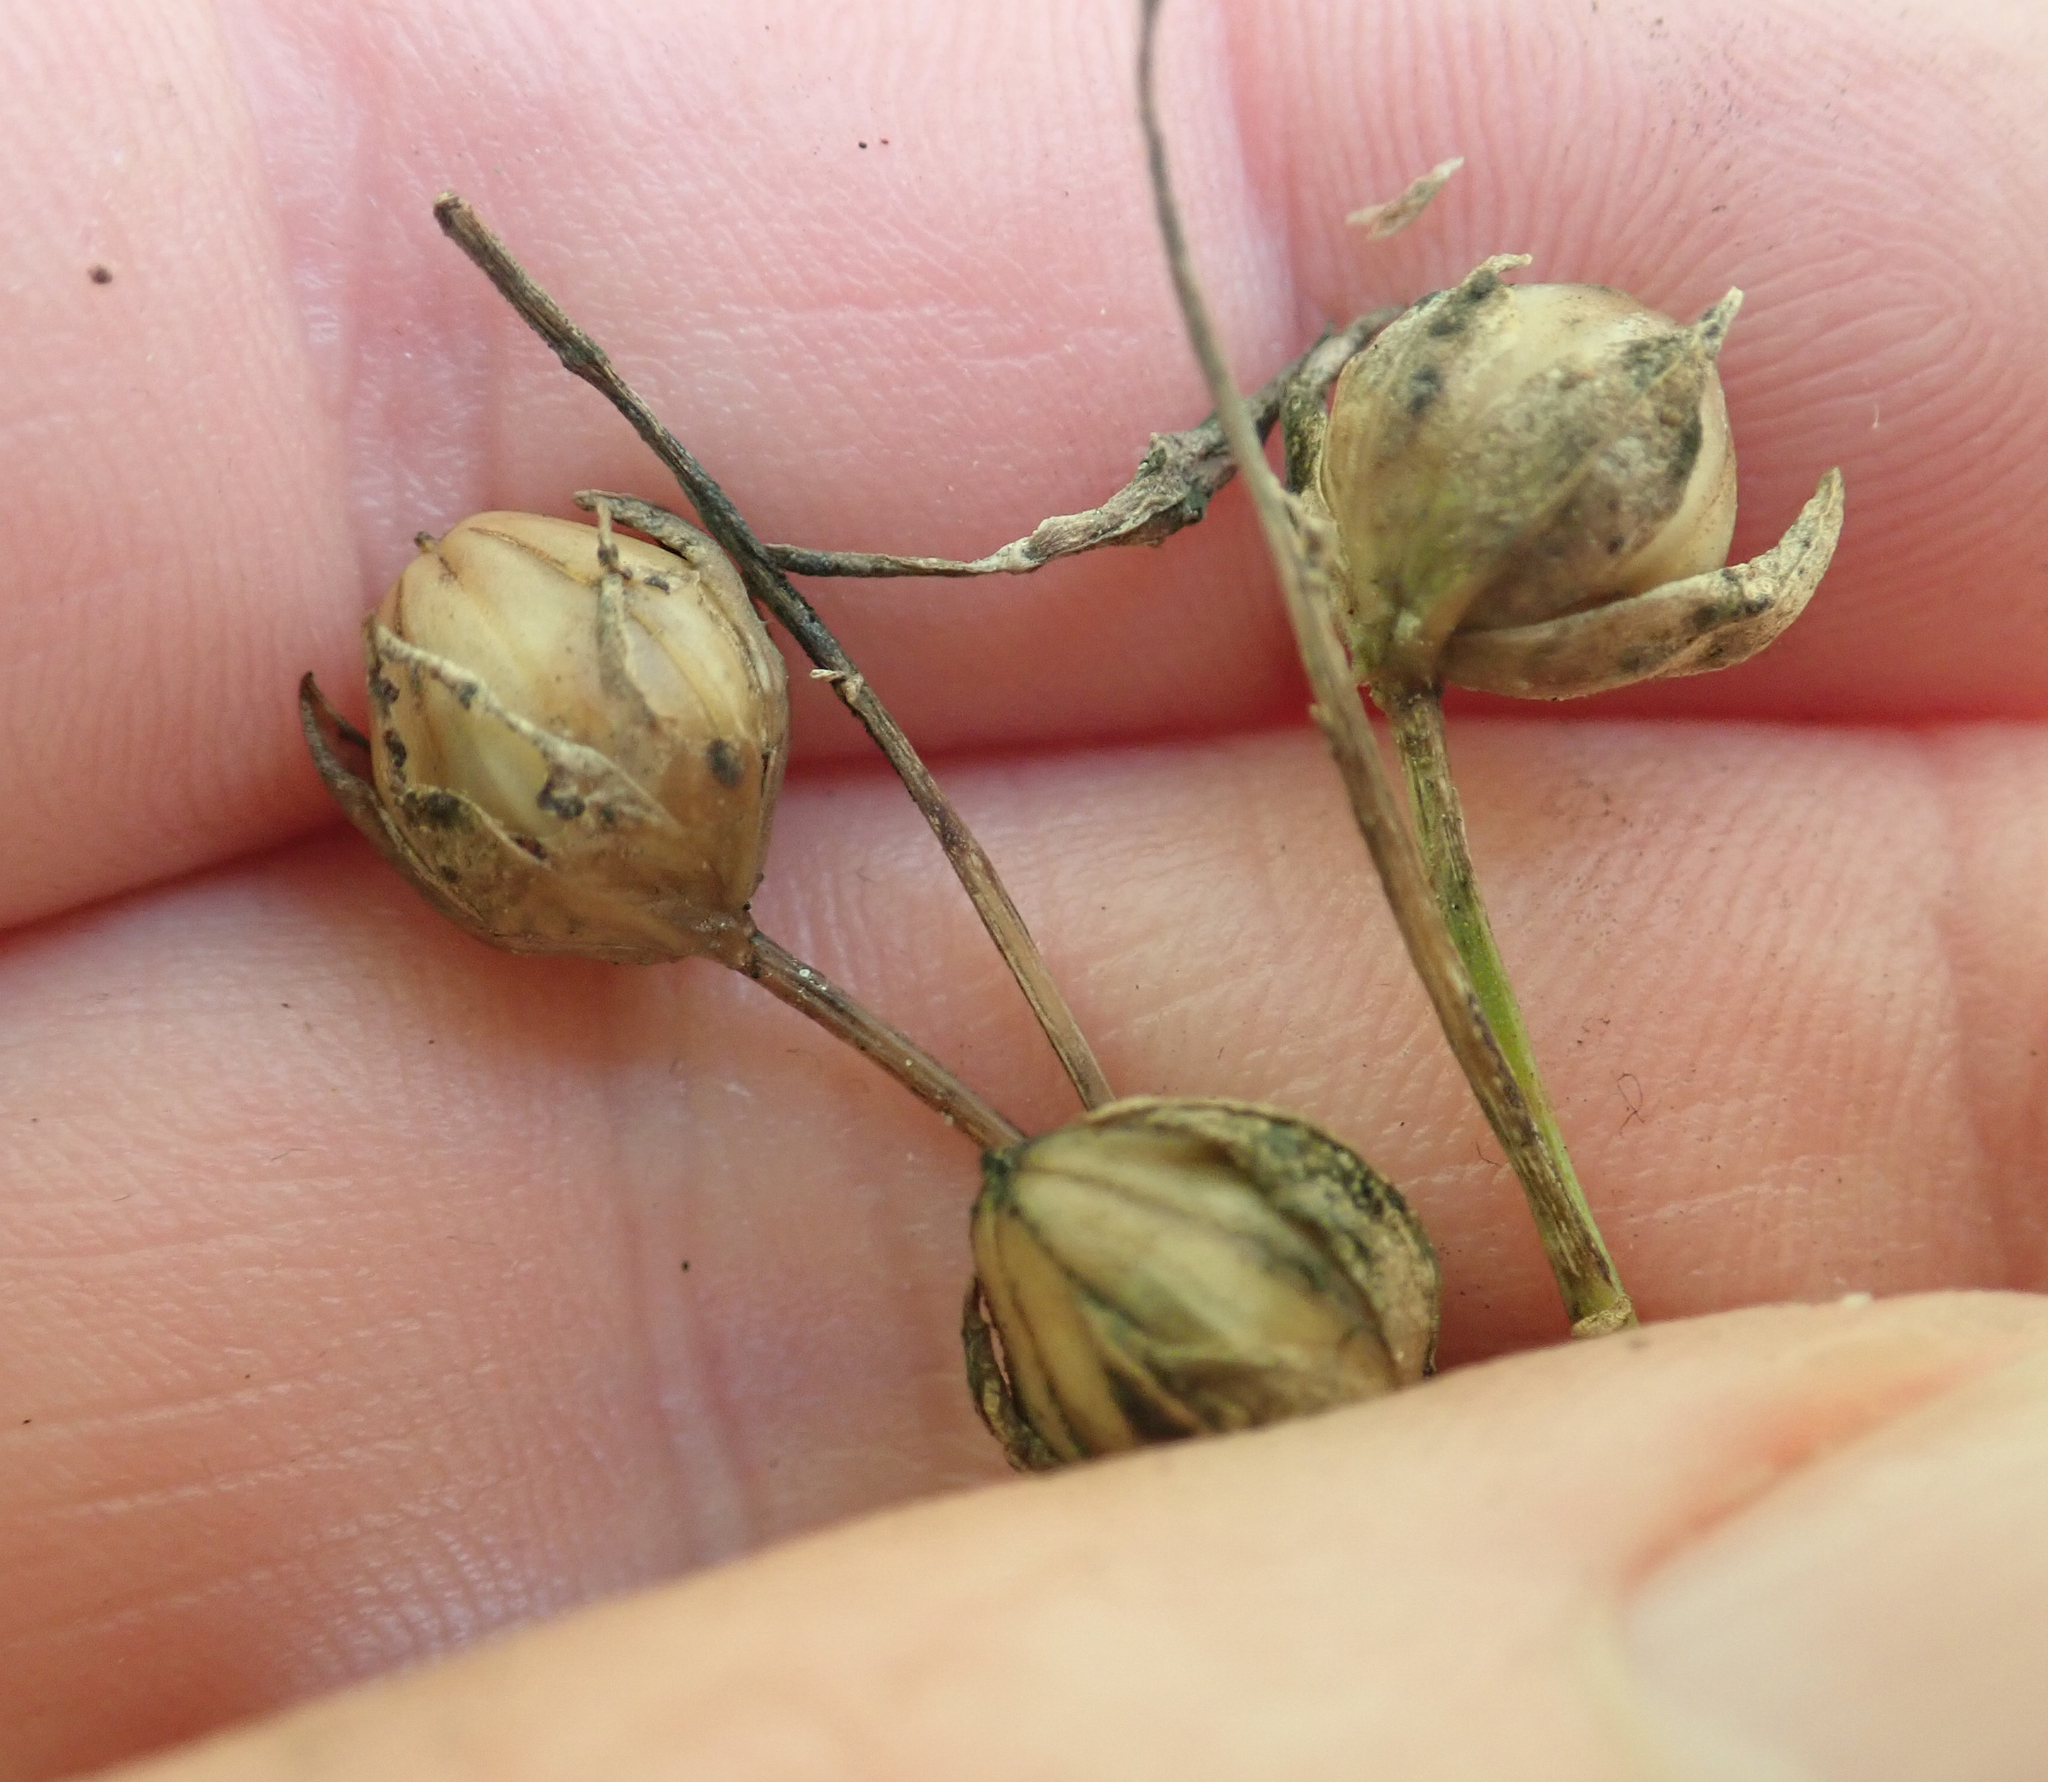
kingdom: Fungi
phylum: Basidiomycota
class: Pucciniomycetes
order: Pucciniales
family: Melampsoraceae
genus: Melampsora
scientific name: Melampsora lini
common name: Flax rust
